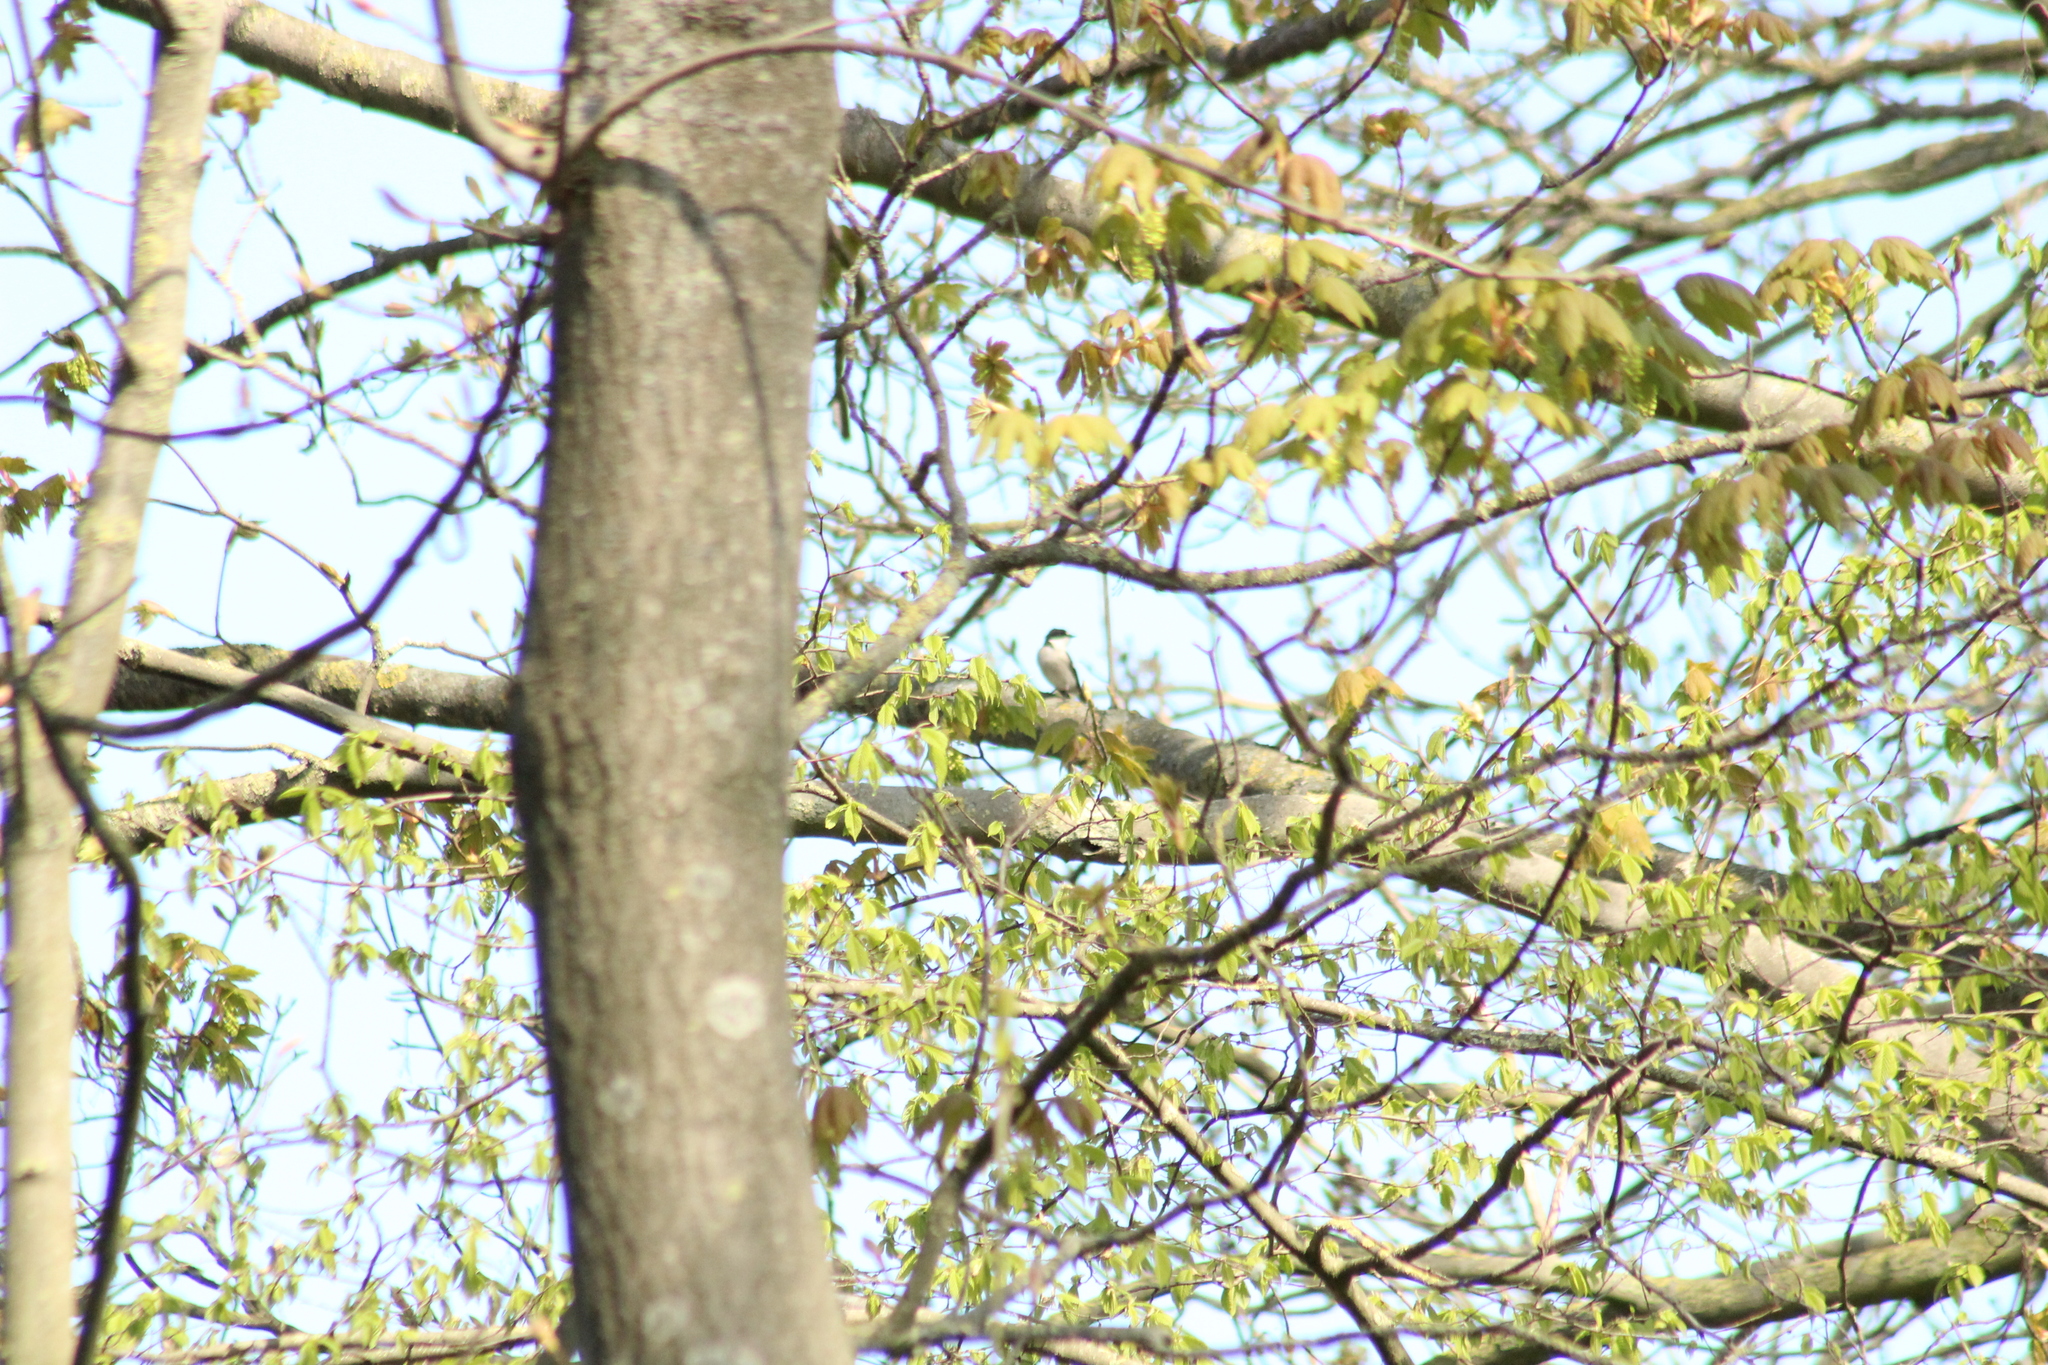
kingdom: Animalia
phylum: Chordata
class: Aves
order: Passeriformes
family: Muscicapidae
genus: Ficedula
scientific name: Ficedula hypoleuca
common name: European pied flycatcher
